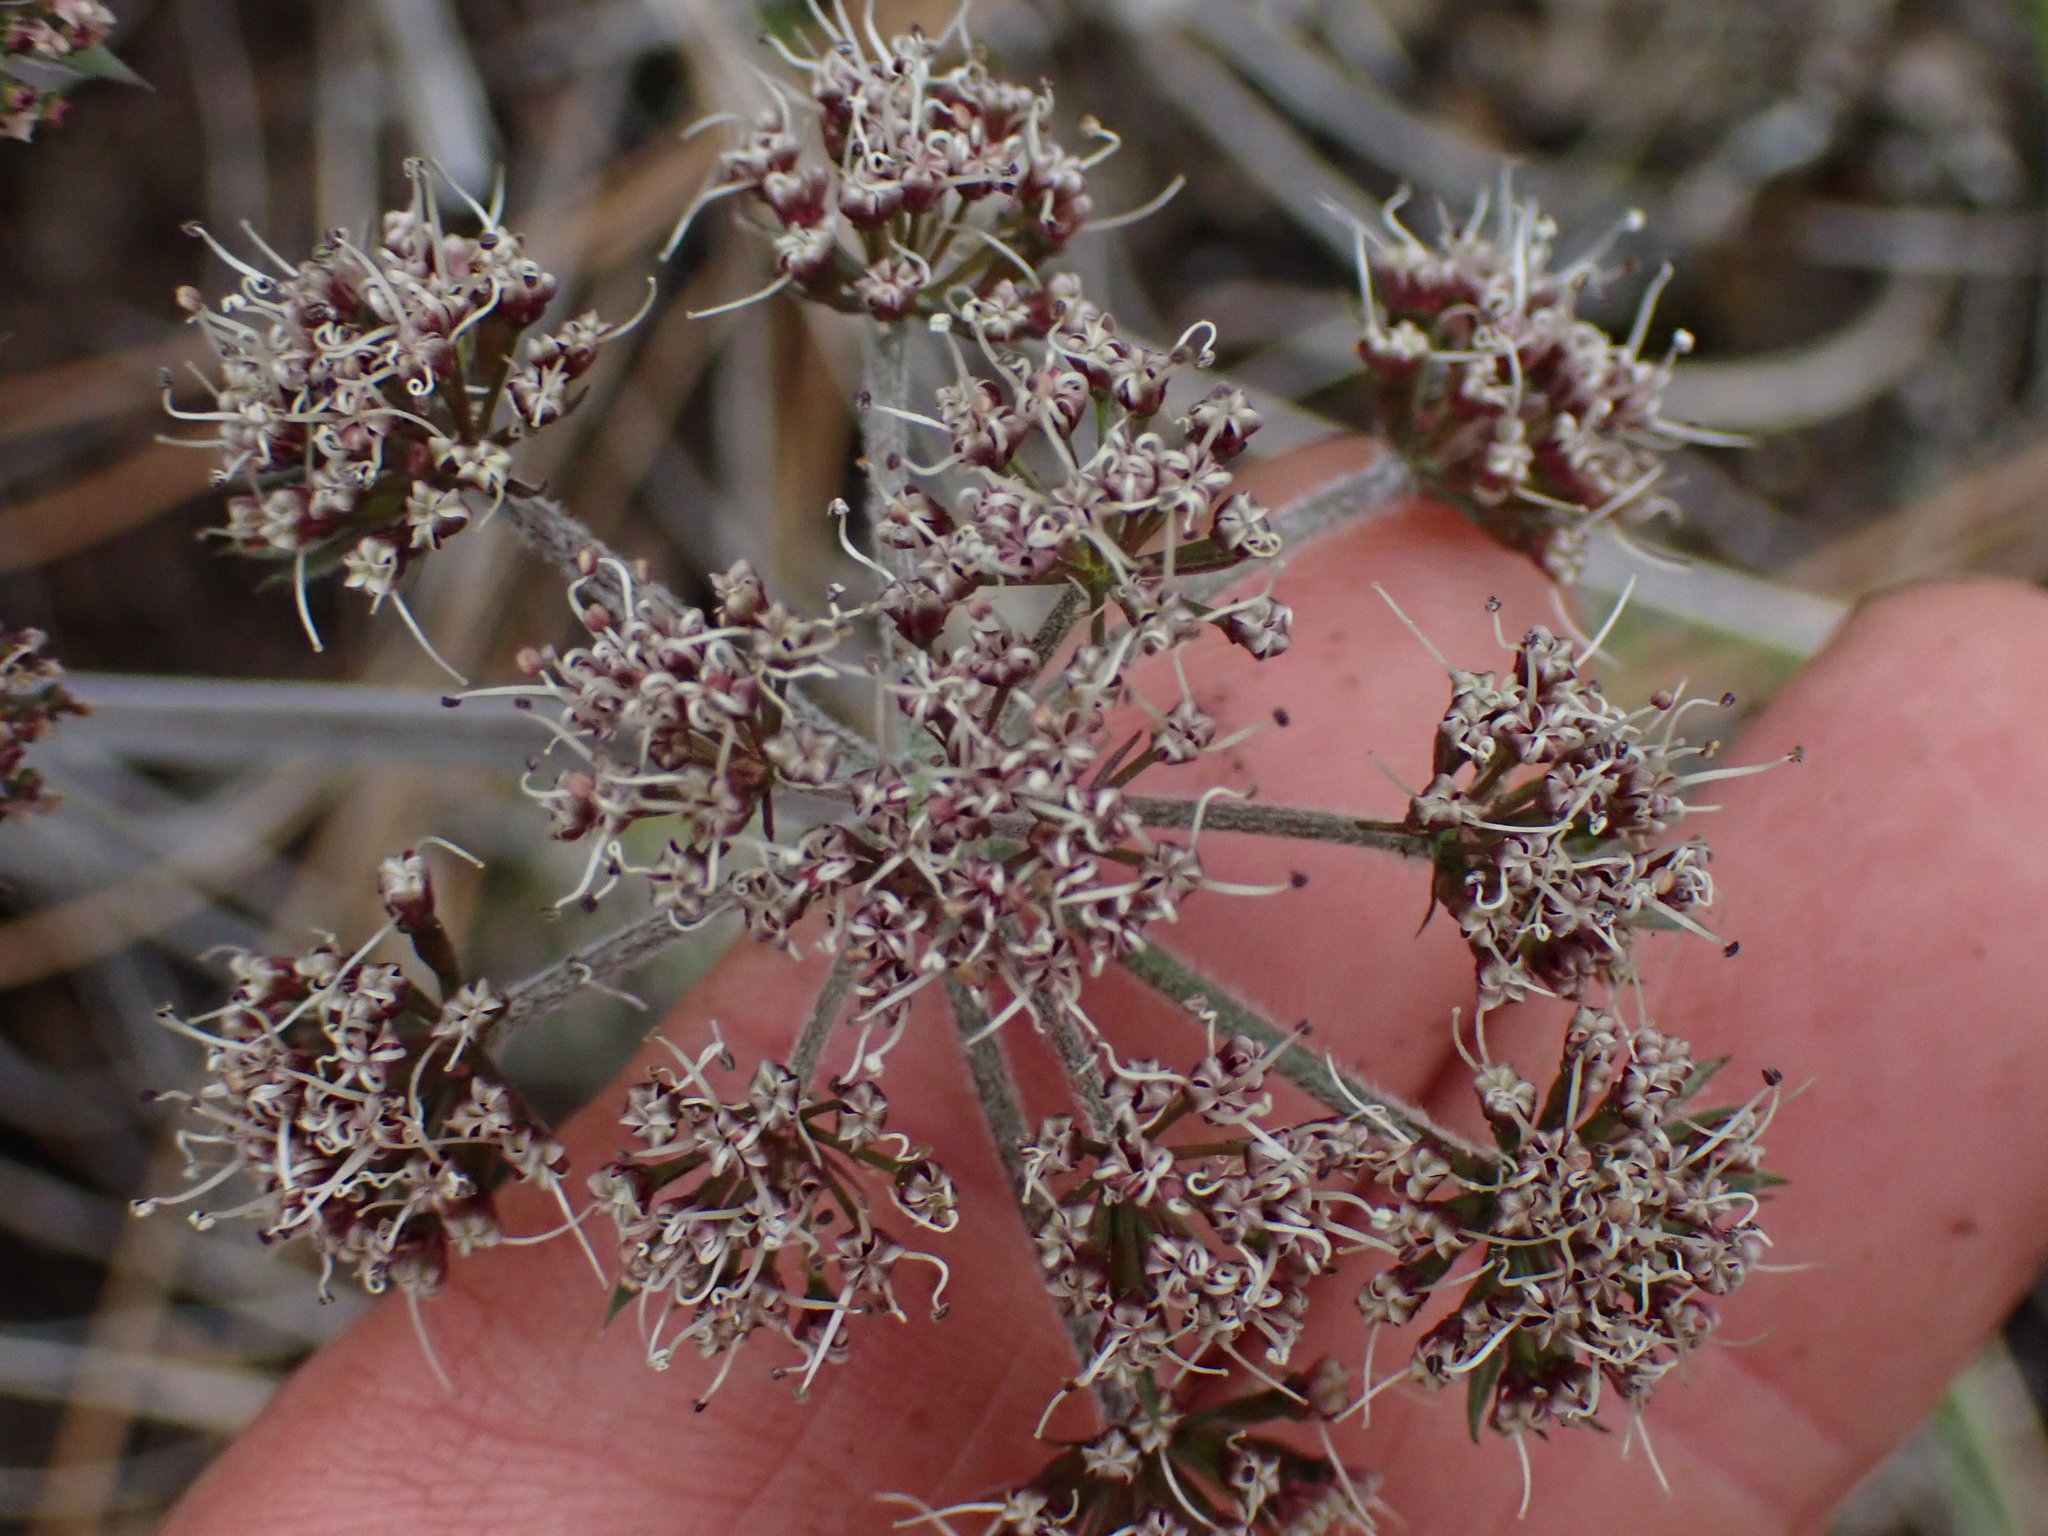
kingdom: Plantae
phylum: Tracheophyta
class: Magnoliopsida
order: Apiales
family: Apiaceae
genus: Lomatium
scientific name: Lomatium macrocarpum
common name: Big-seed biscuitroot
